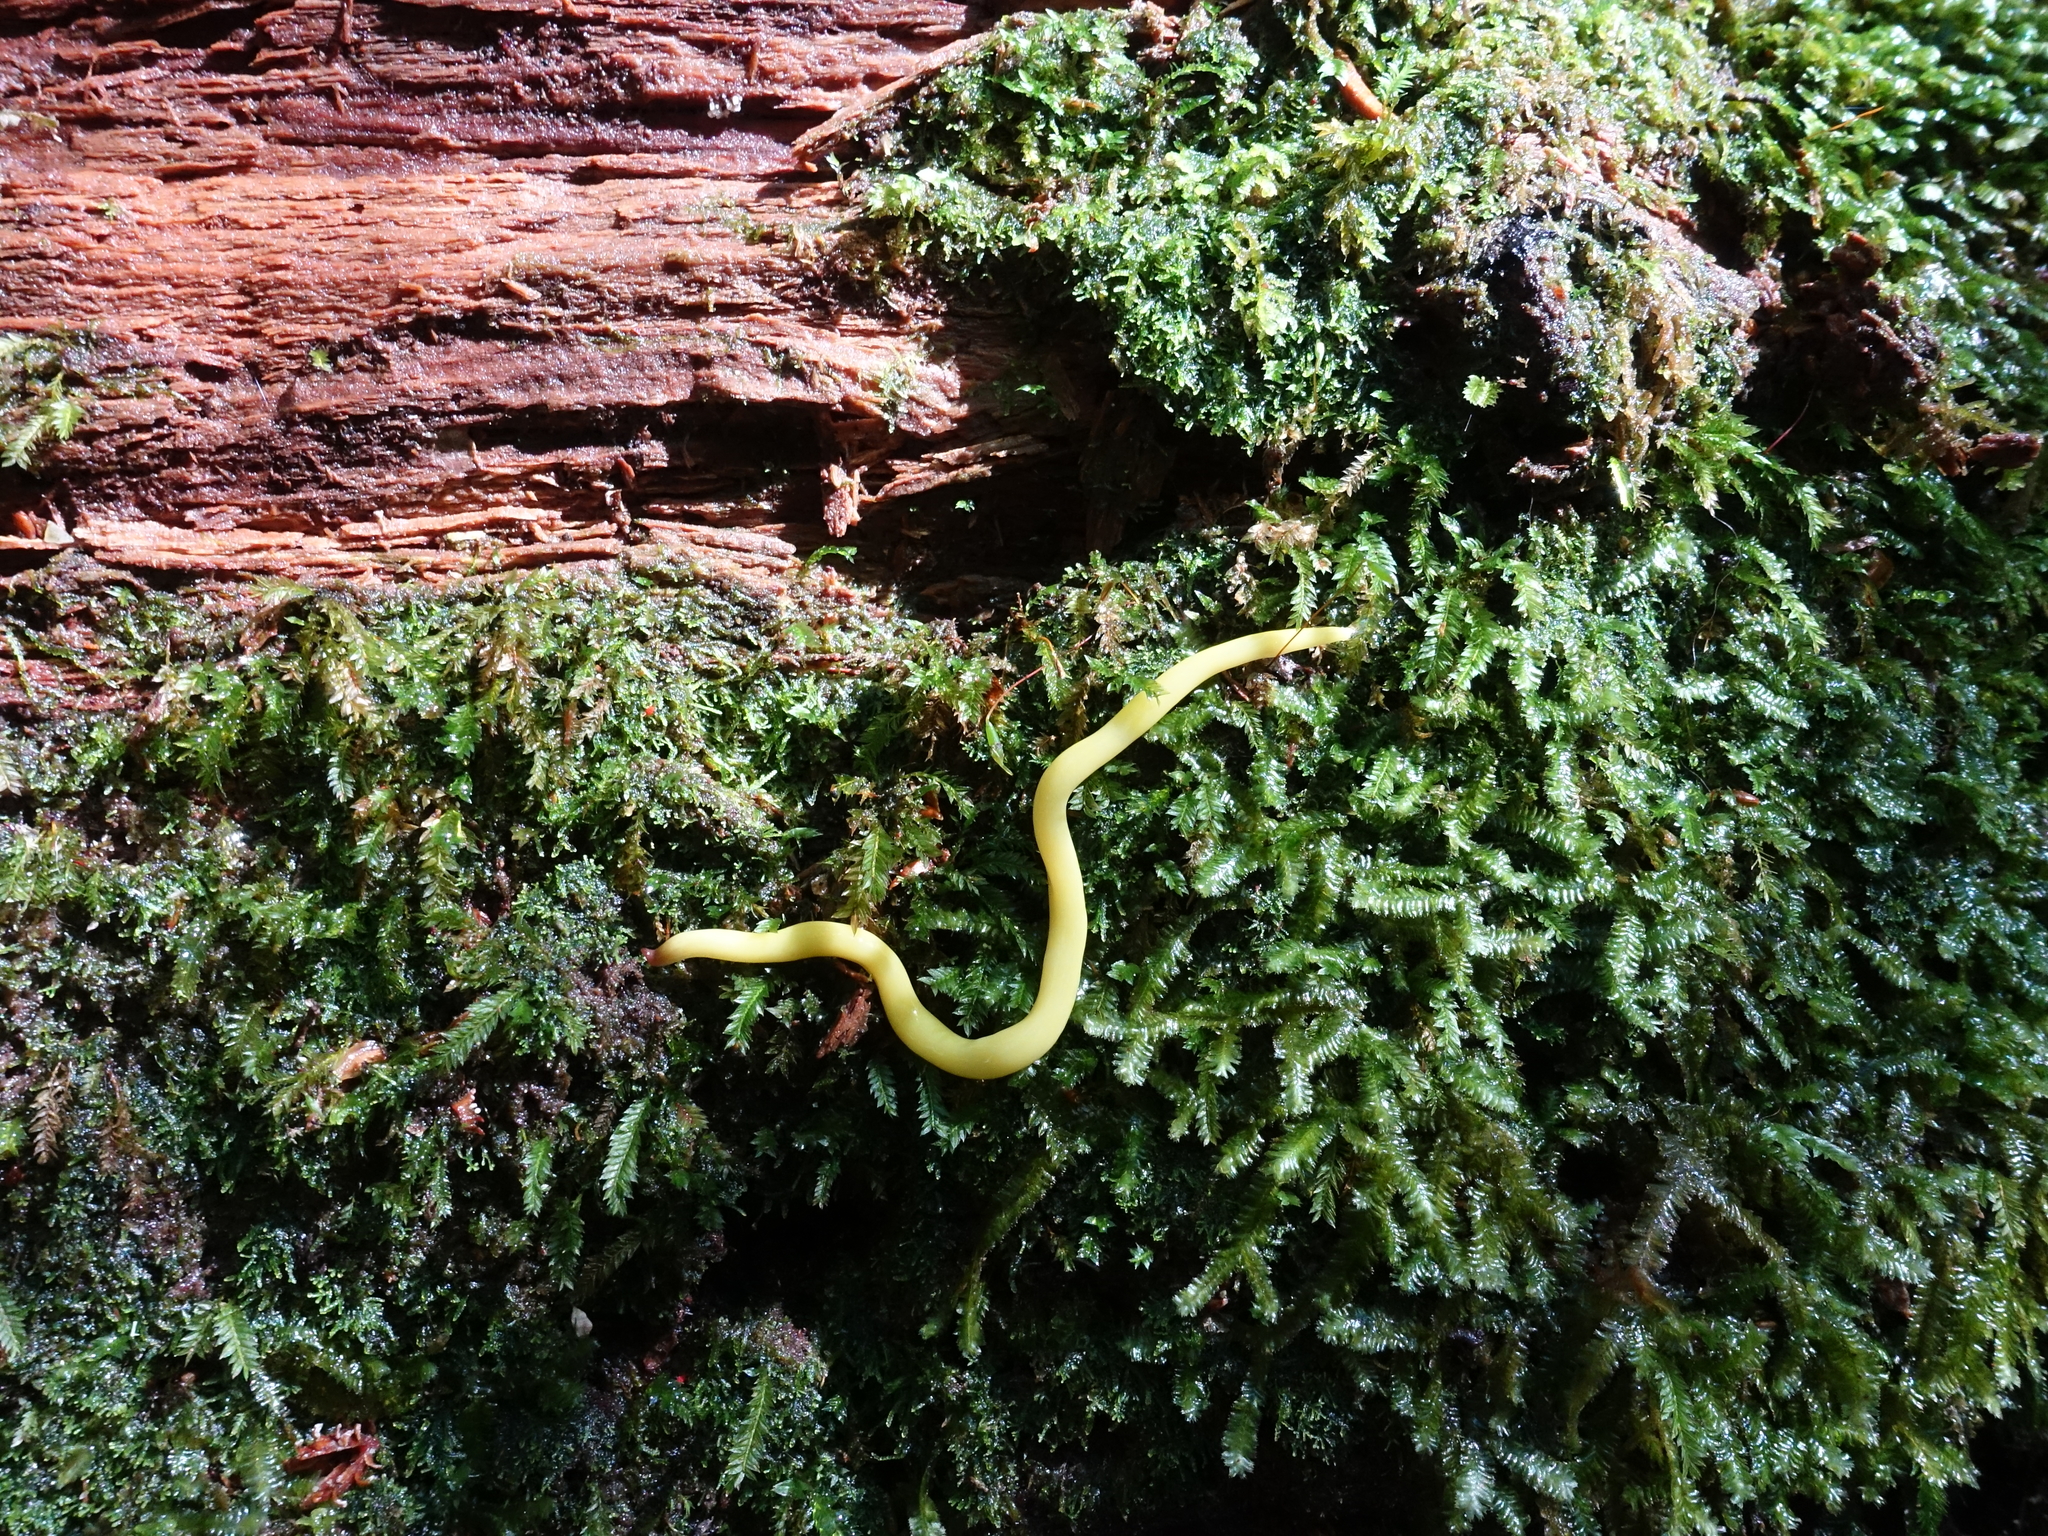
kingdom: Animalia
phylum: Platyhelminthes
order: Tricladida
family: Geoplanidae
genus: Fletchamia
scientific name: Fletchamia sugdeni
